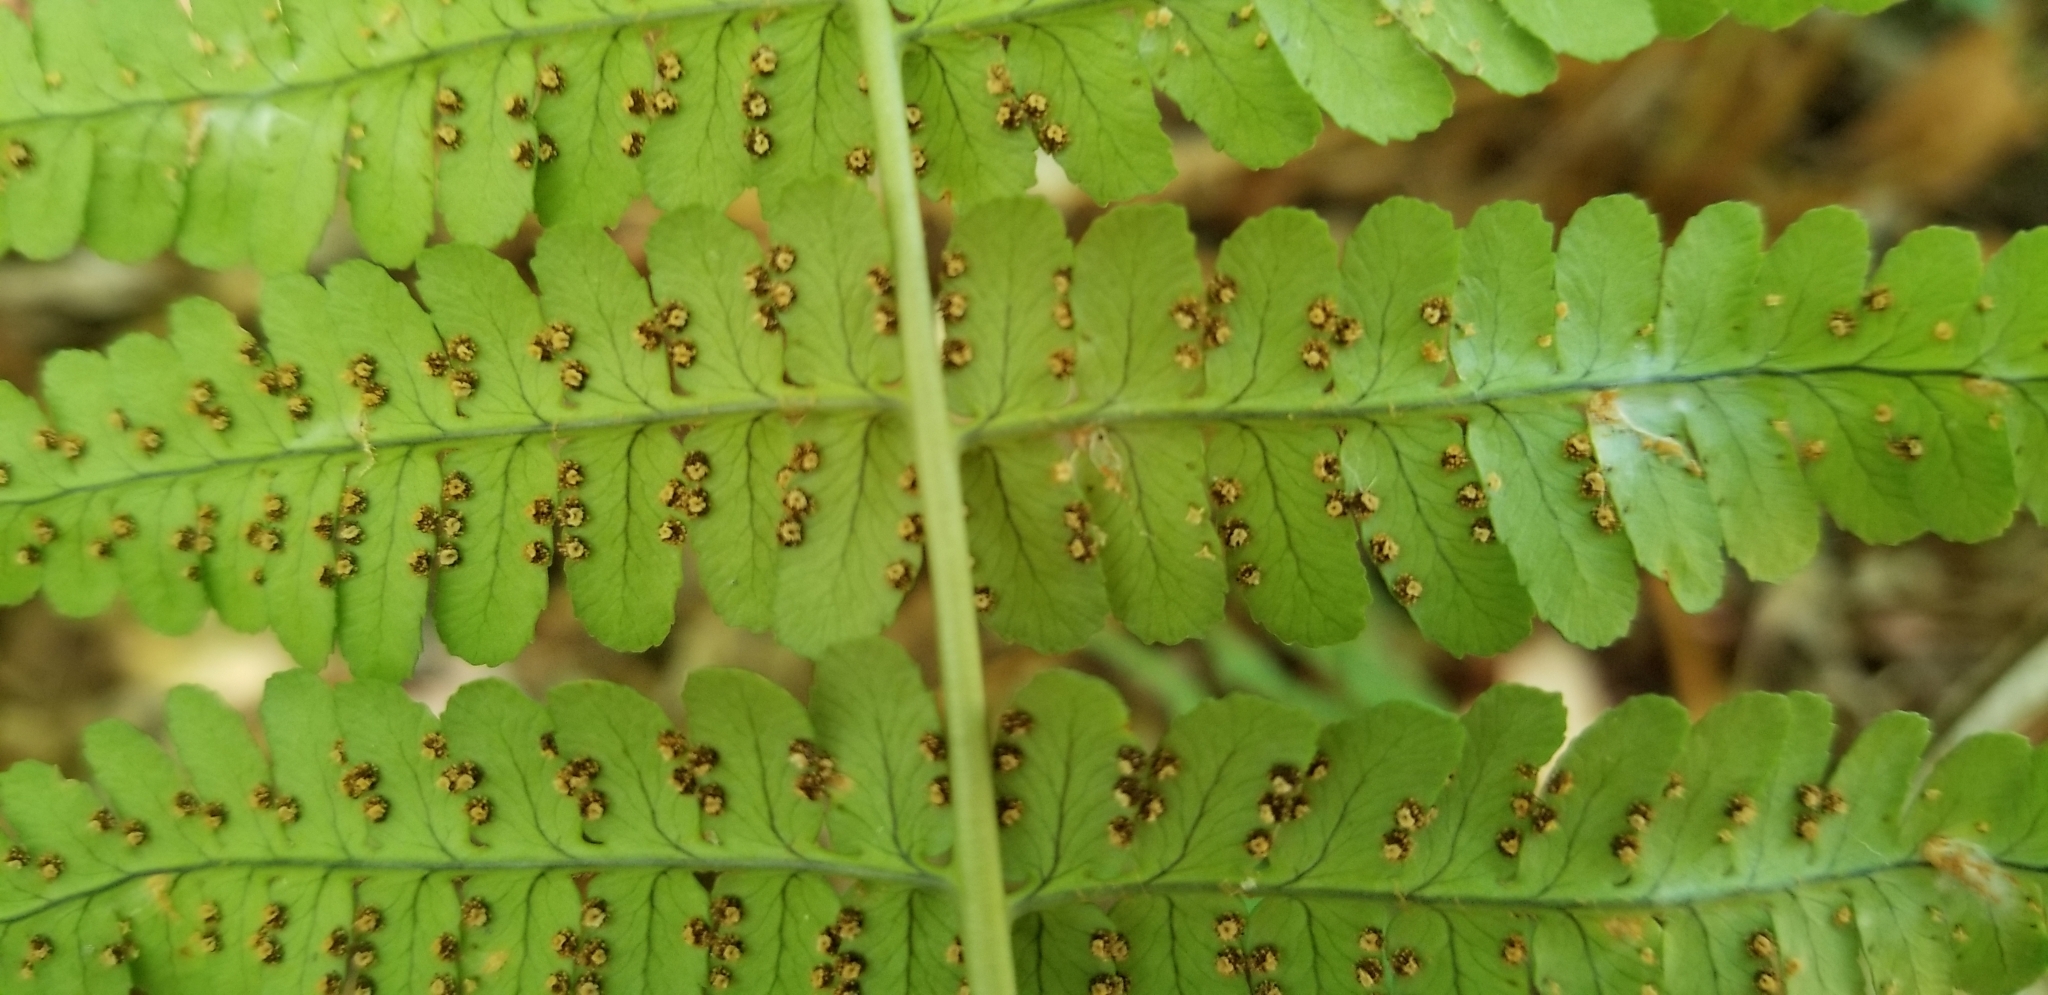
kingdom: Plantae
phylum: Tracheophyta
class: Polypodiopsida
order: Polypodiales
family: Dryopteridaceae
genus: Dryopteris
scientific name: Dryopteris marginalis
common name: Marginal wood fern
